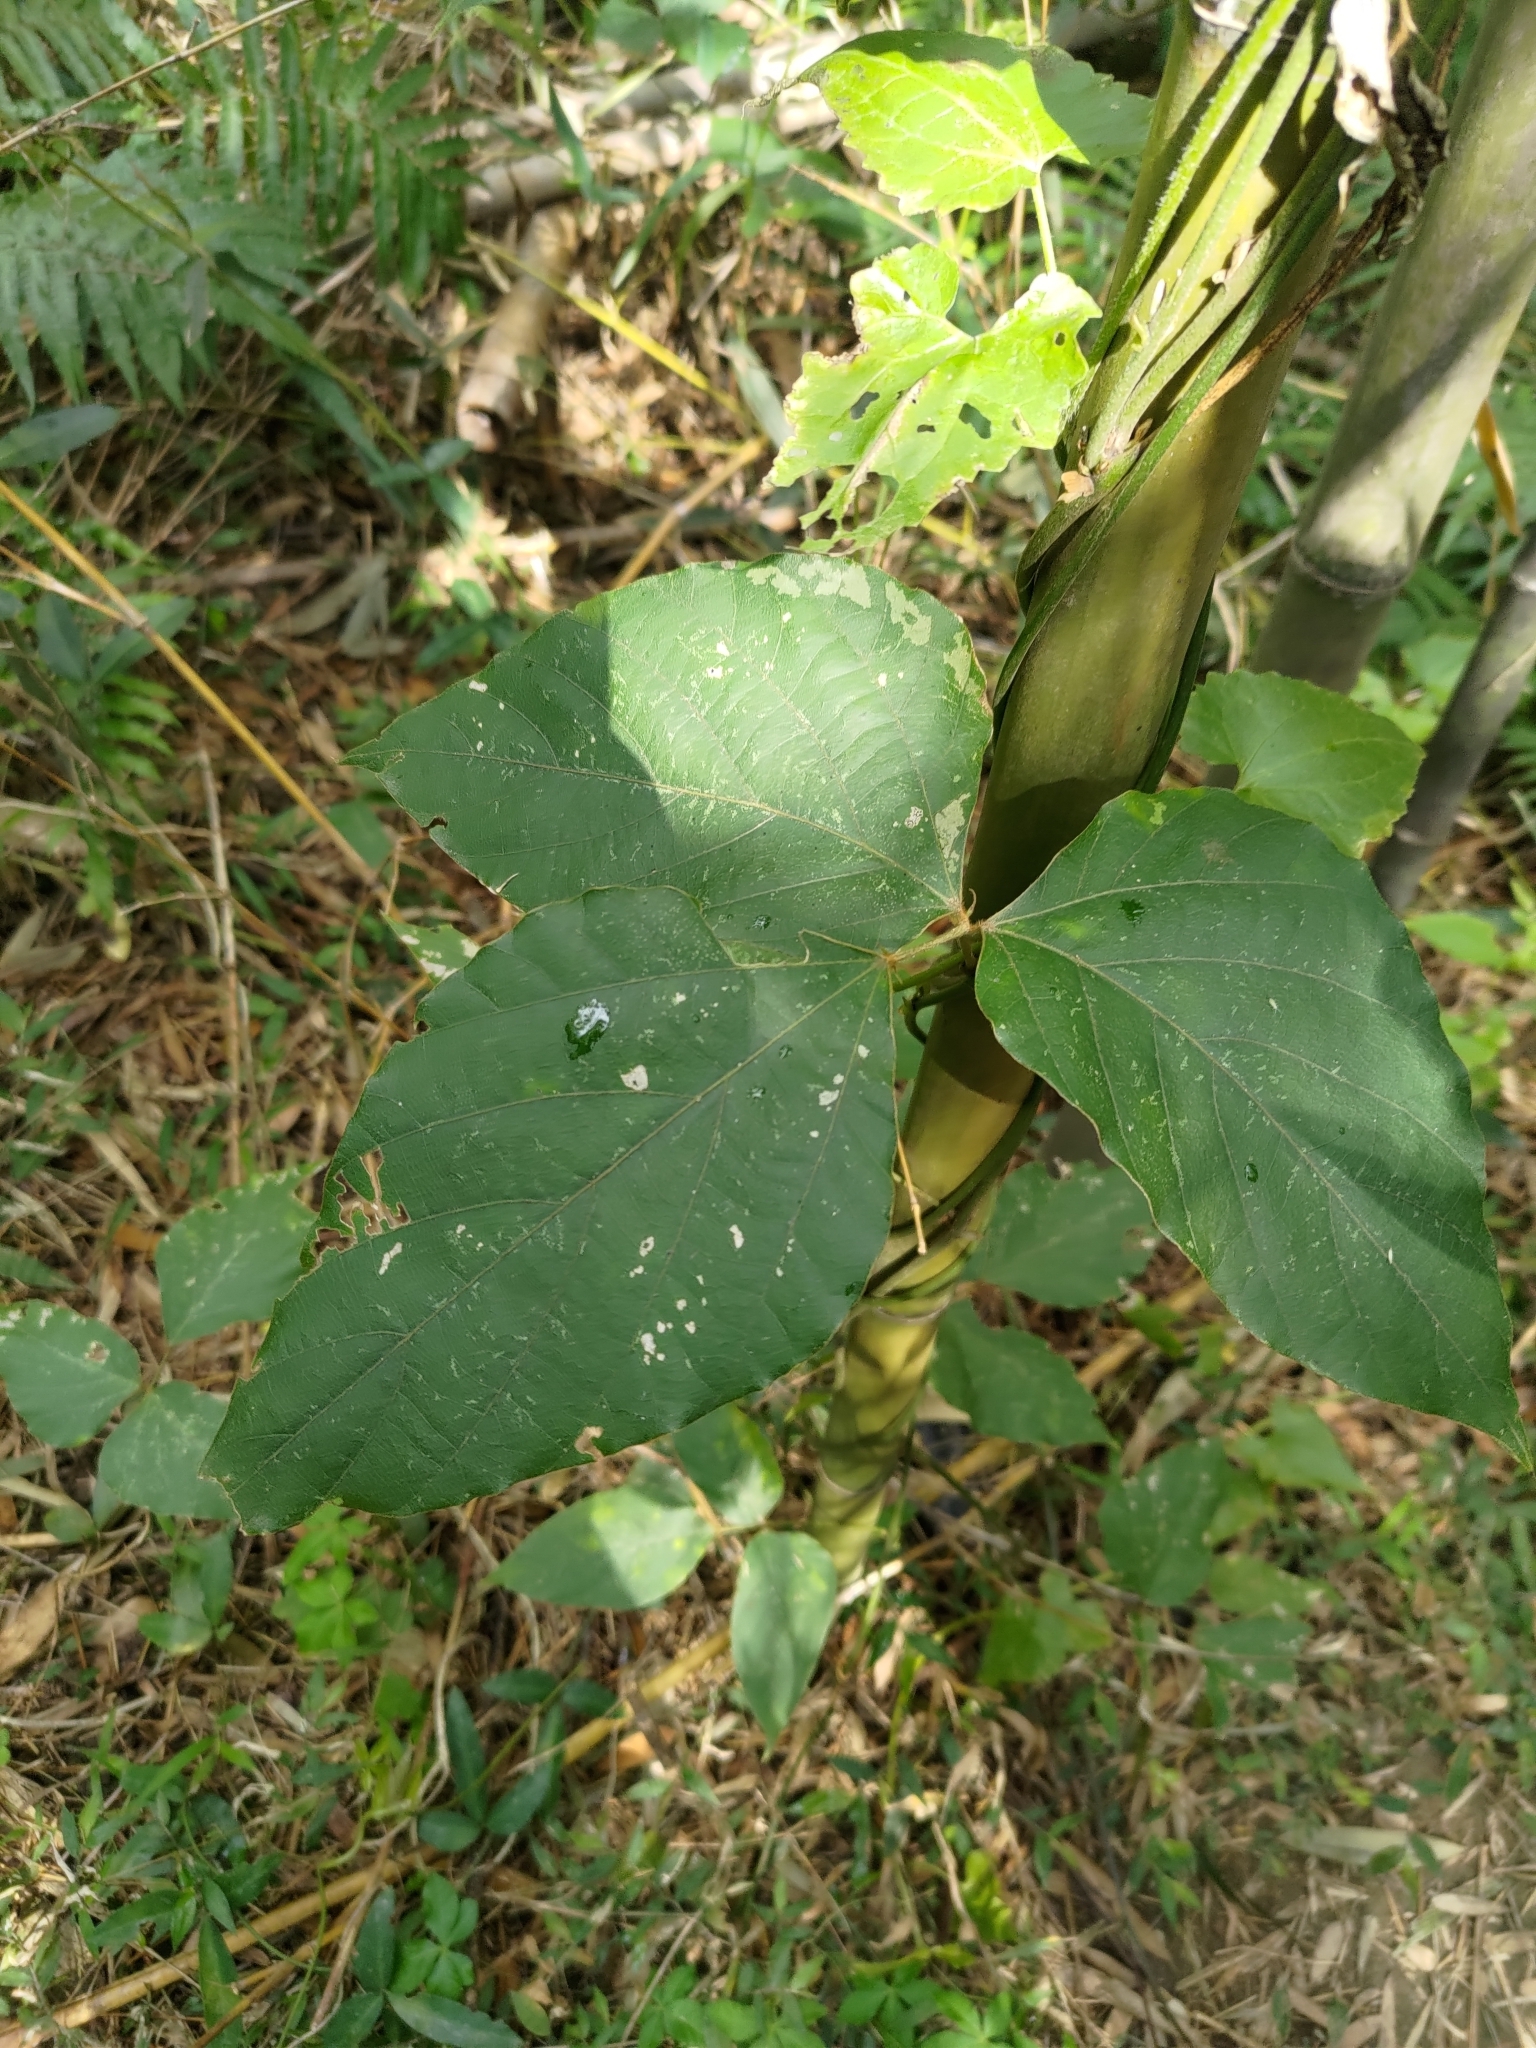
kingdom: Plantae
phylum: Tracheophyta
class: Magnoliopsida
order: Fabales
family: Fabaceae
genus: Pueraria
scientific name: Pueraria montana
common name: Kudzu
